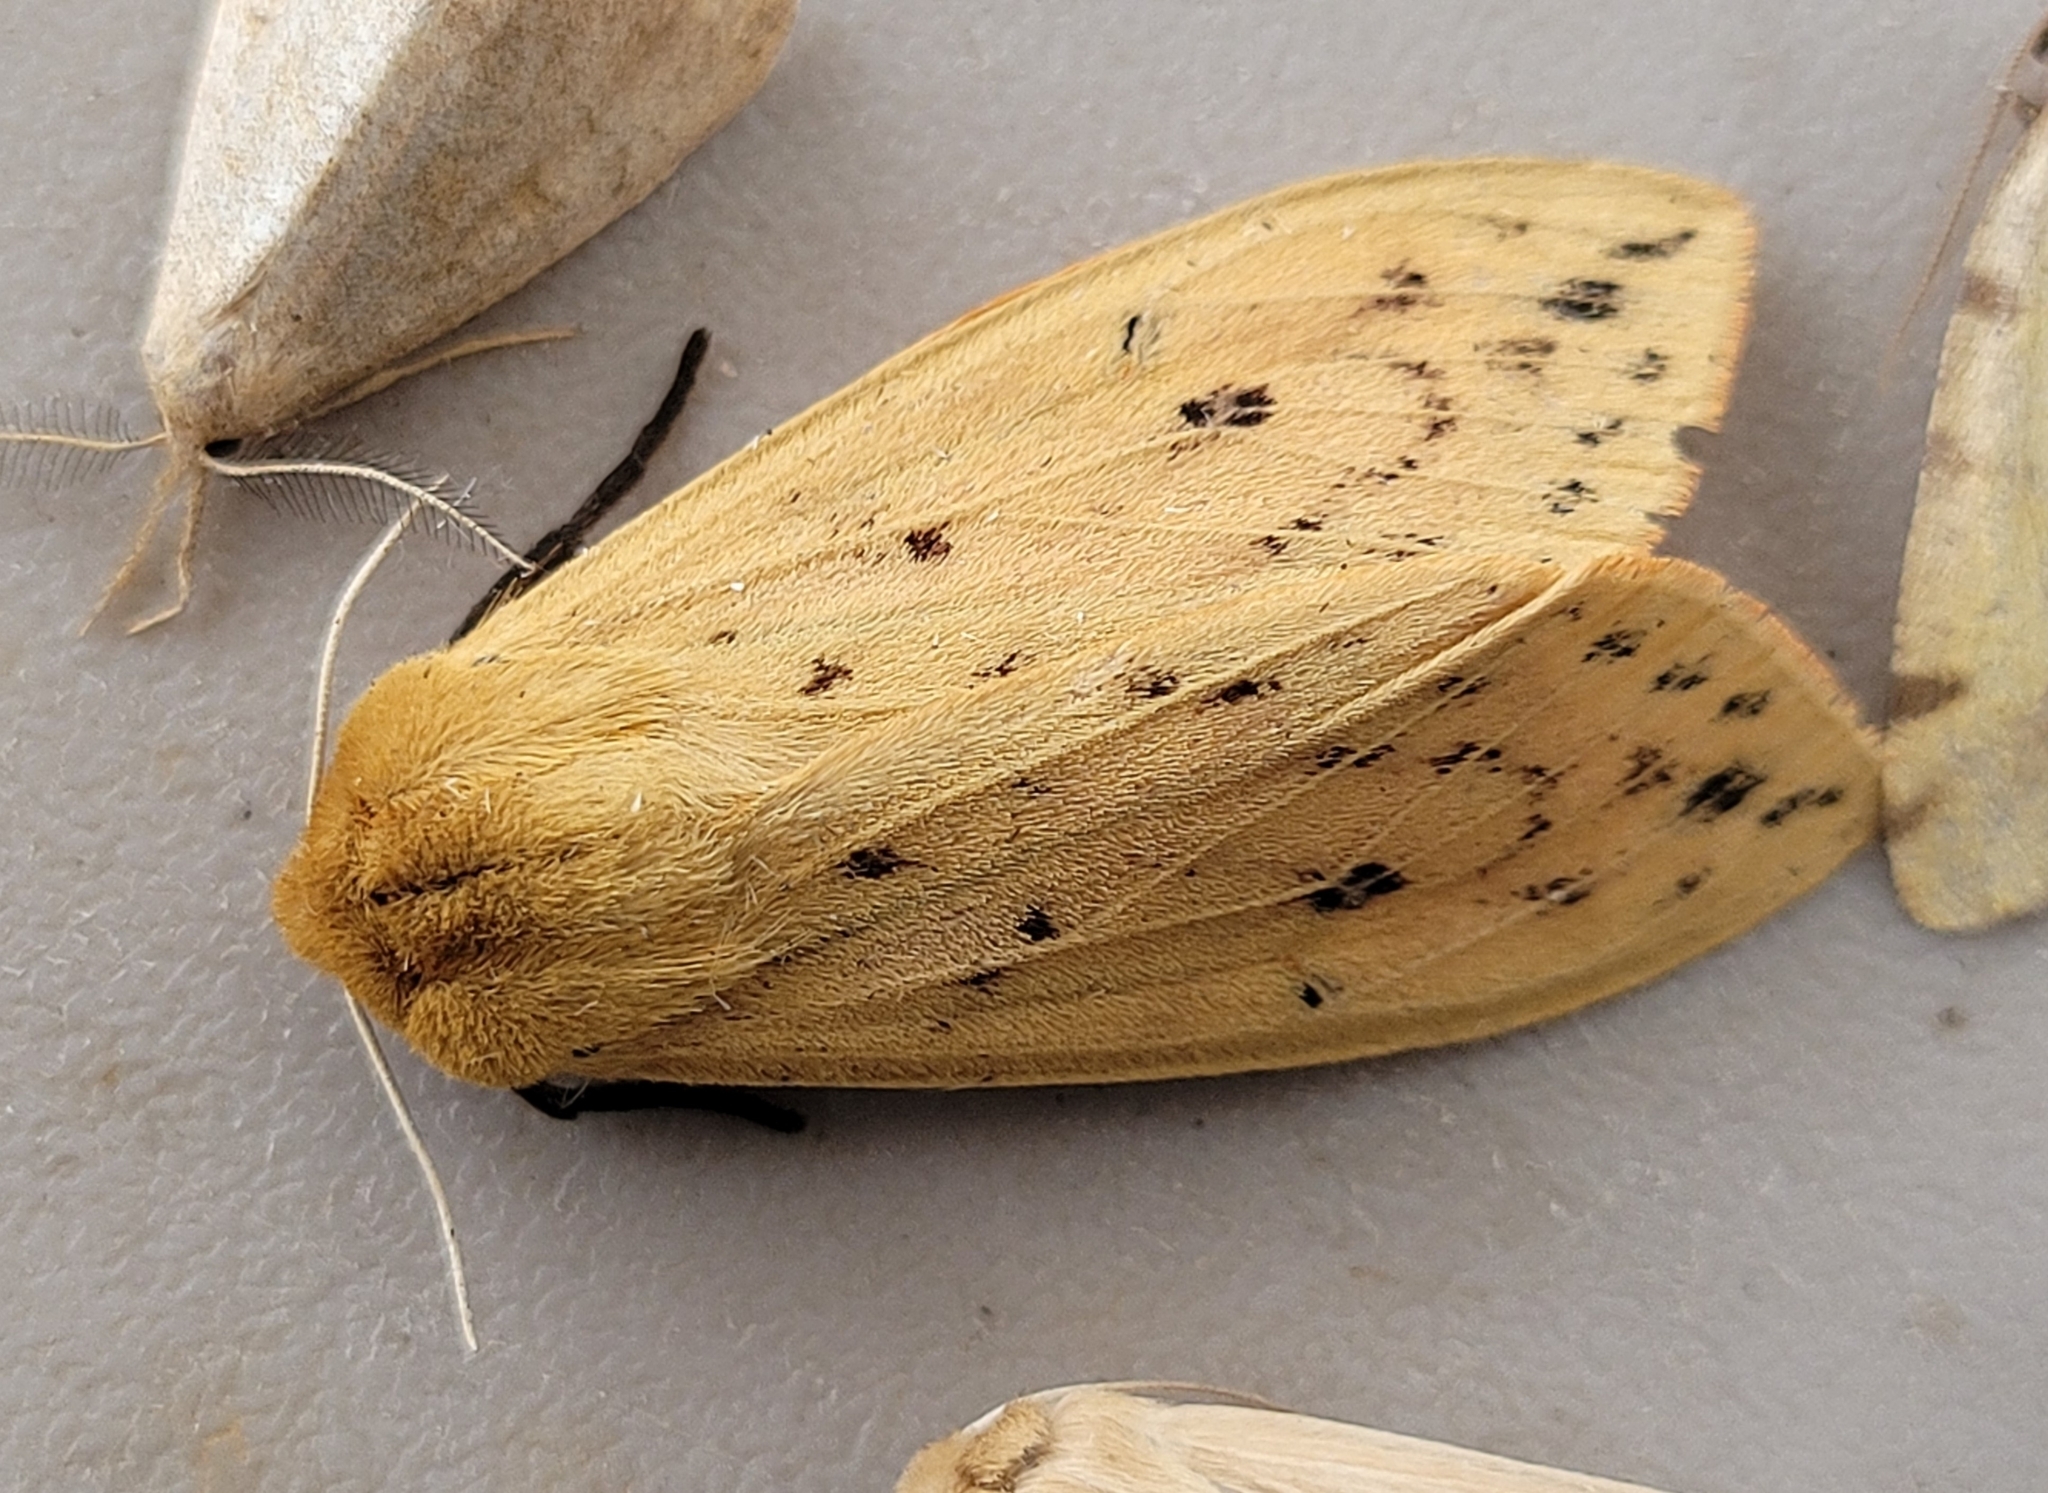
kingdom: Animalia
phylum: Arthropoda
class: Insecta
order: Lepidoptera
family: Erebidae
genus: Pyrrharctia
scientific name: Pyrrharctia isabella
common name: Isabella tiger moth
